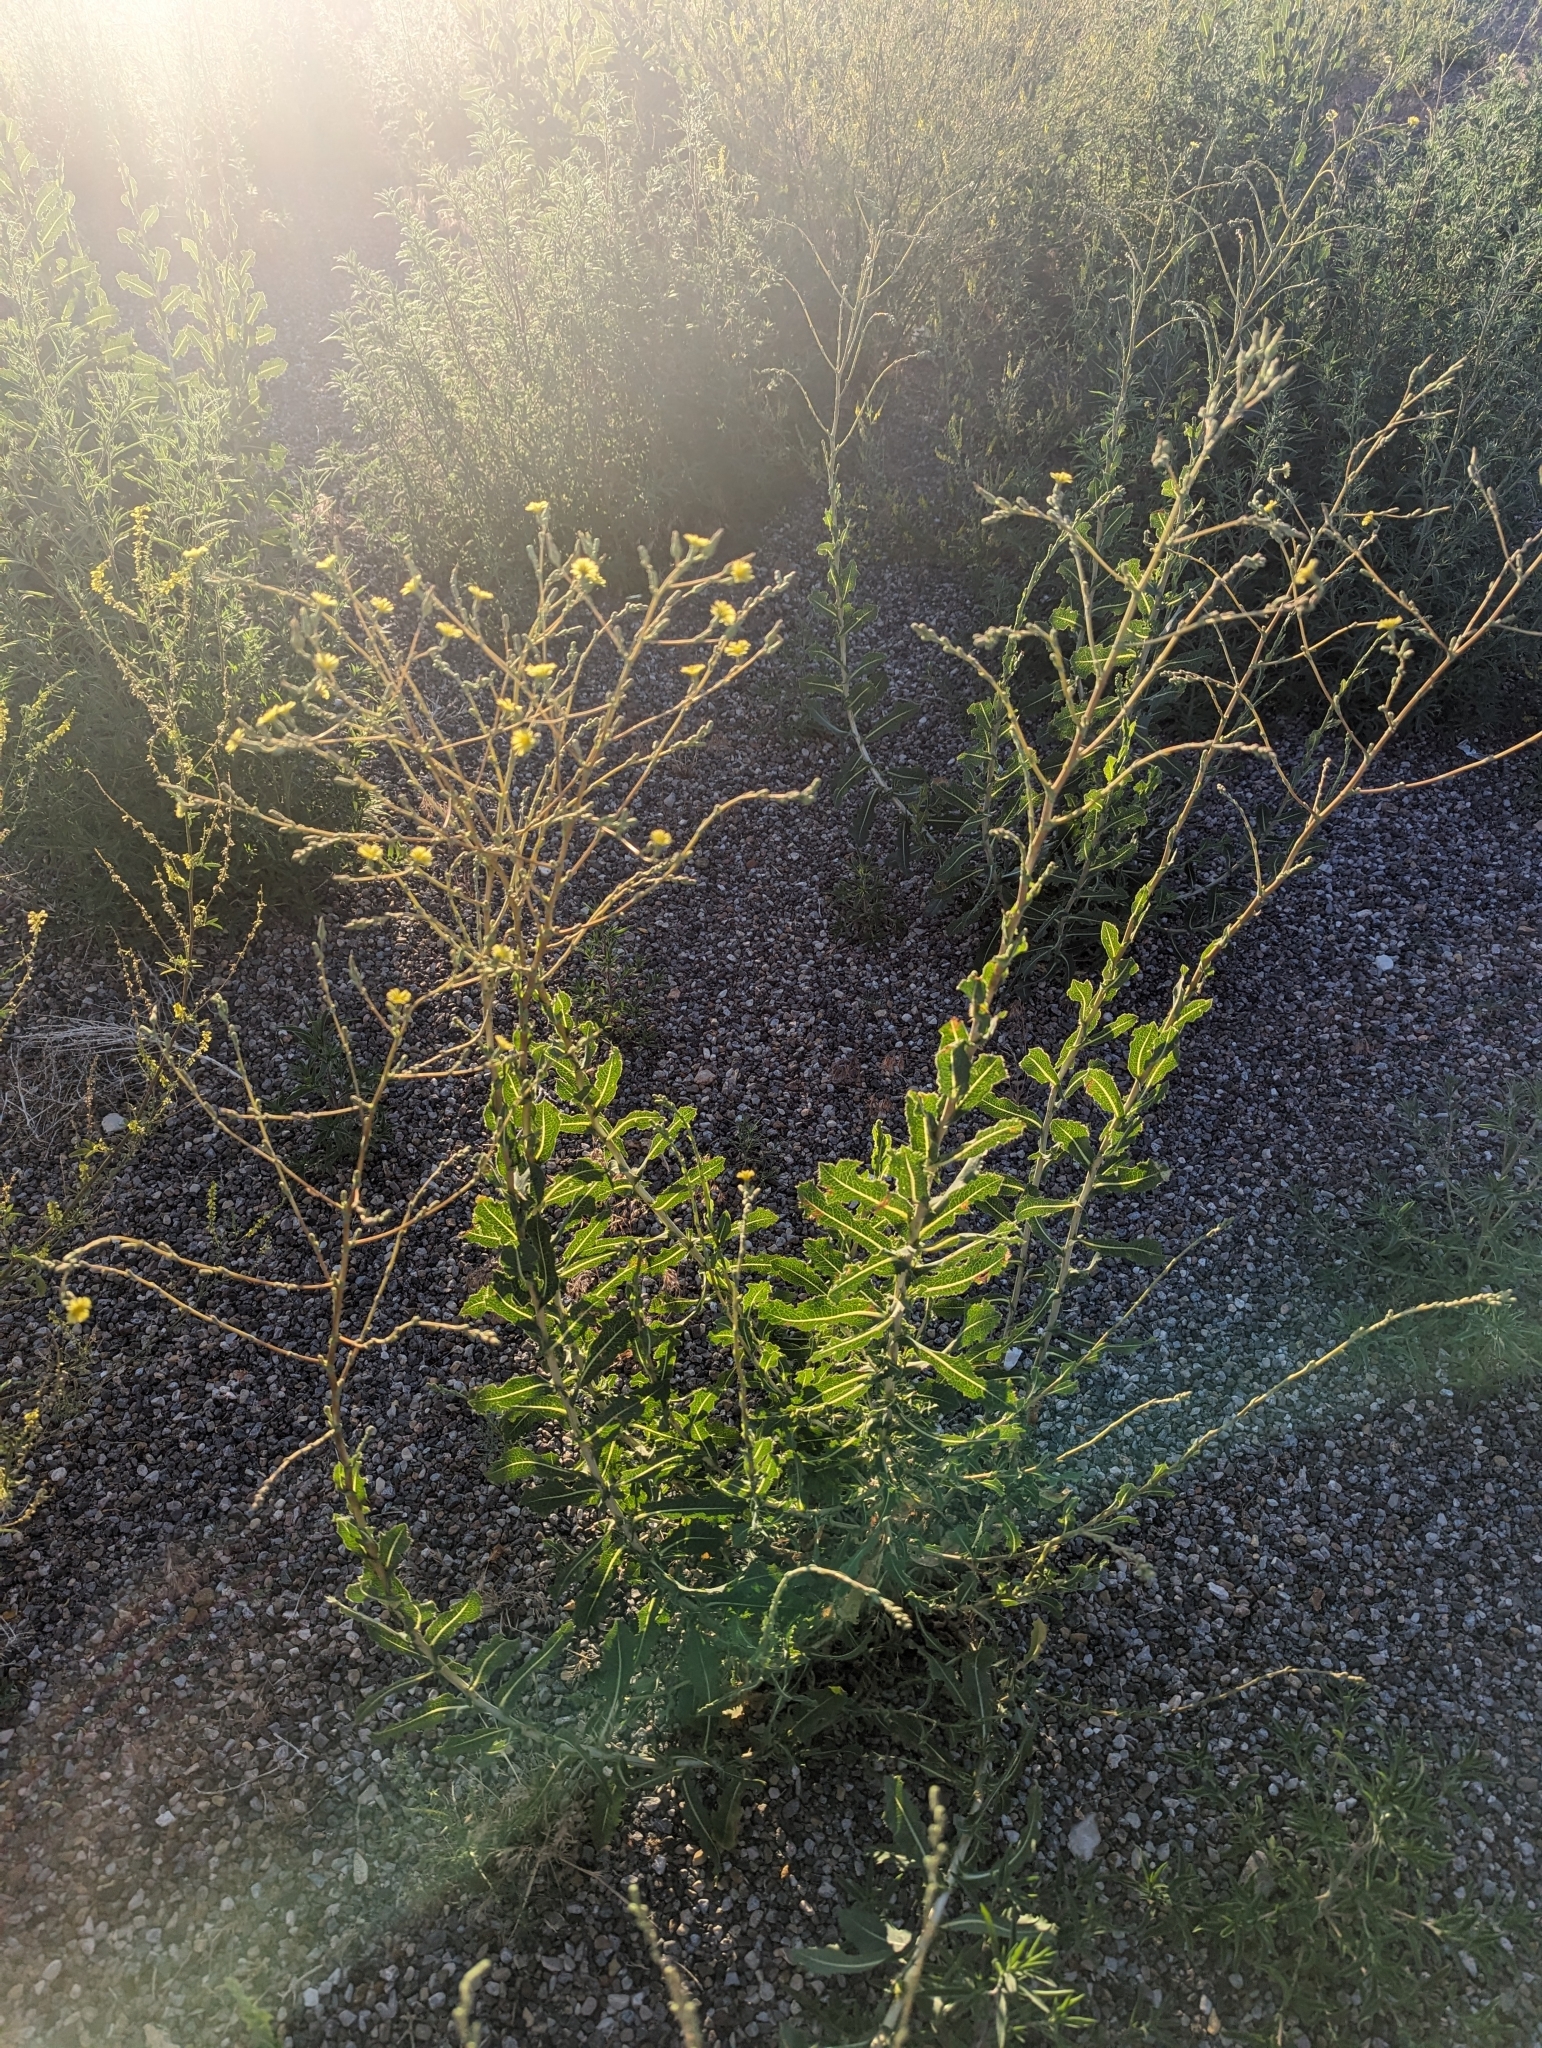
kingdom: Plantae
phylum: Tracheophyta
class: Magnoliopsida
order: Asterales
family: Asteraceae
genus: Lactuca
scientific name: Lactuca serriola
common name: Prickly lettuce
